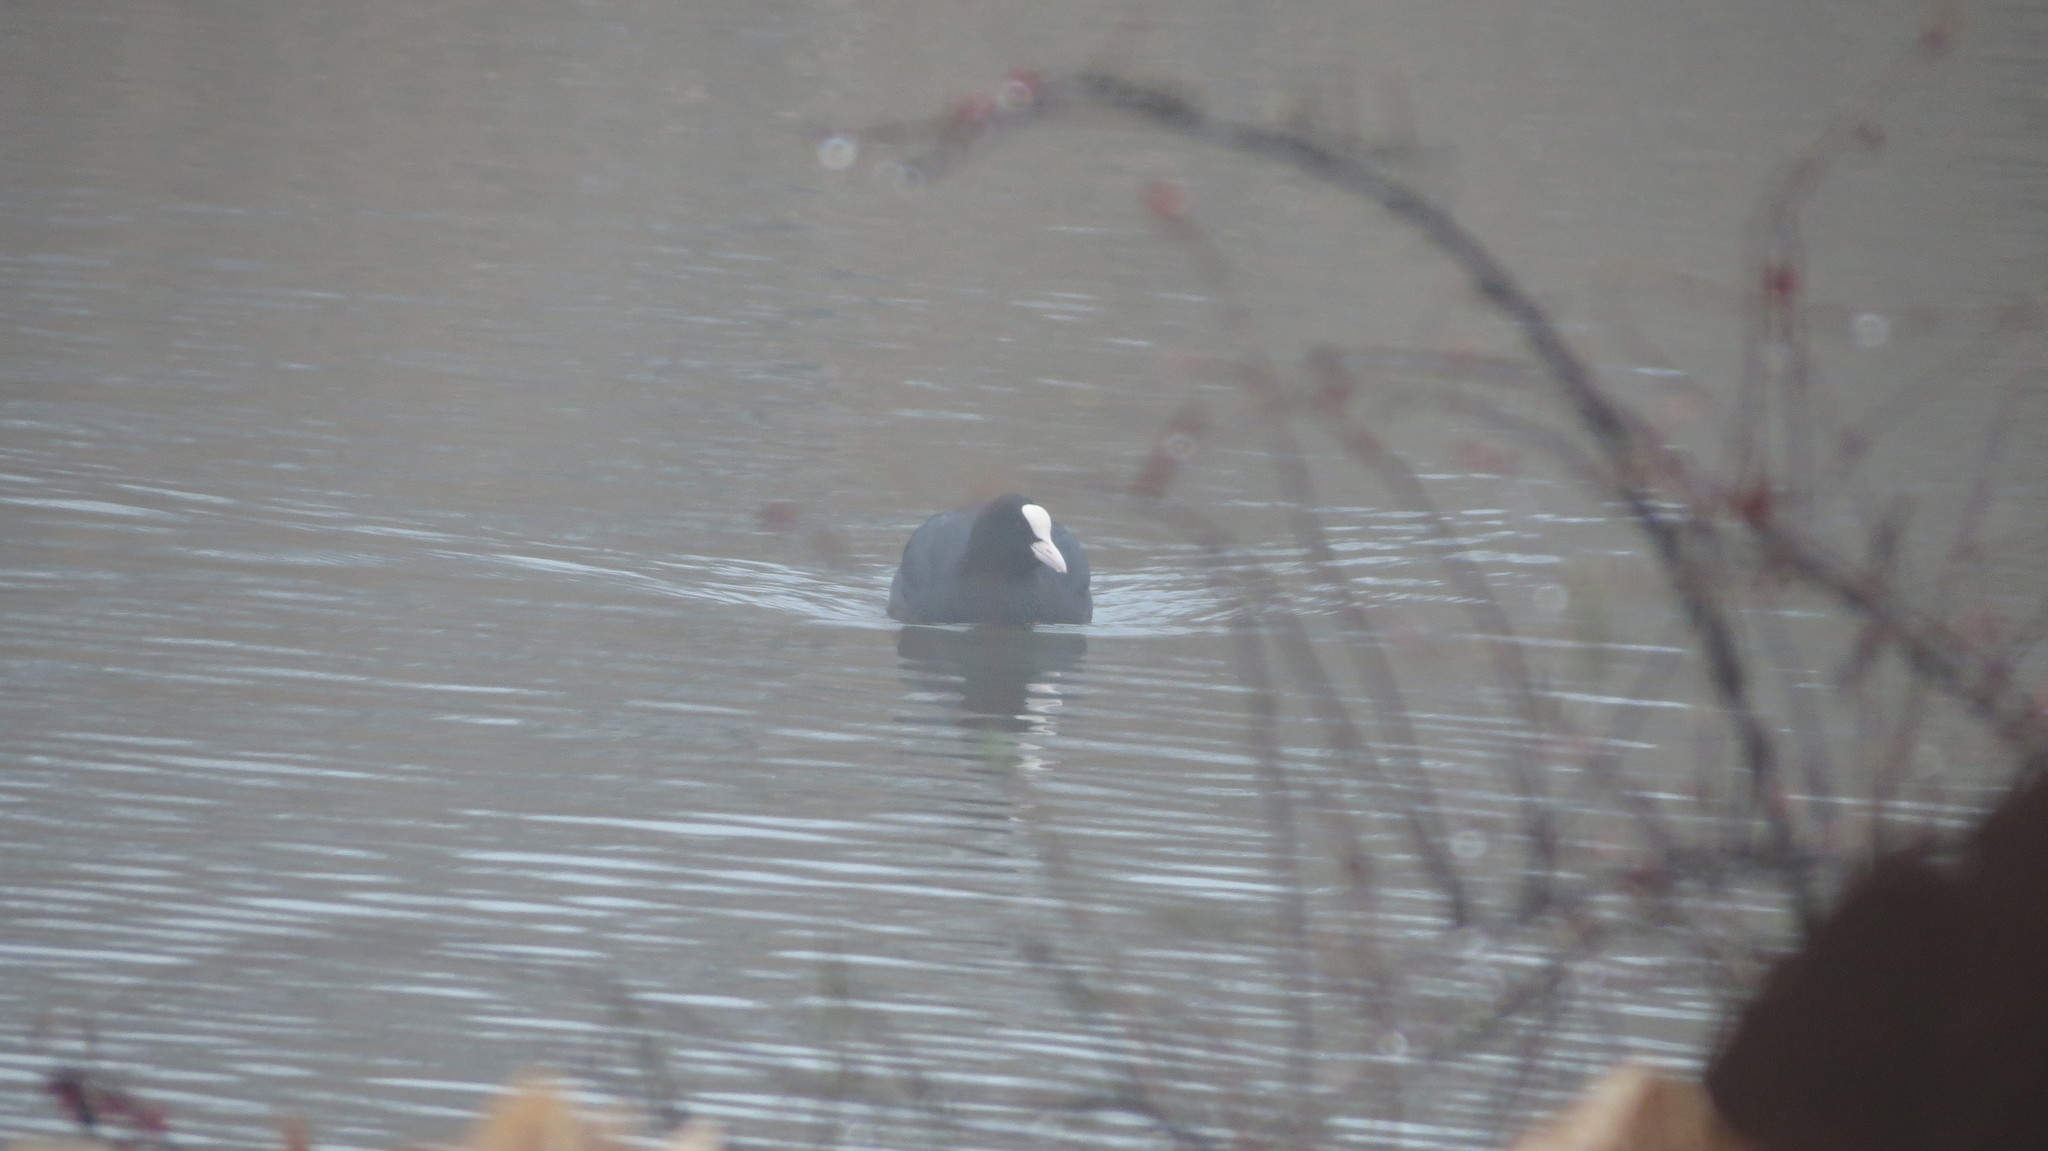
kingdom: Animalia
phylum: Chordata
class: Aves
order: Gruiformes
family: Rallidae
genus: Fulica
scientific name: Fulica atra
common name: Eurasian coot
